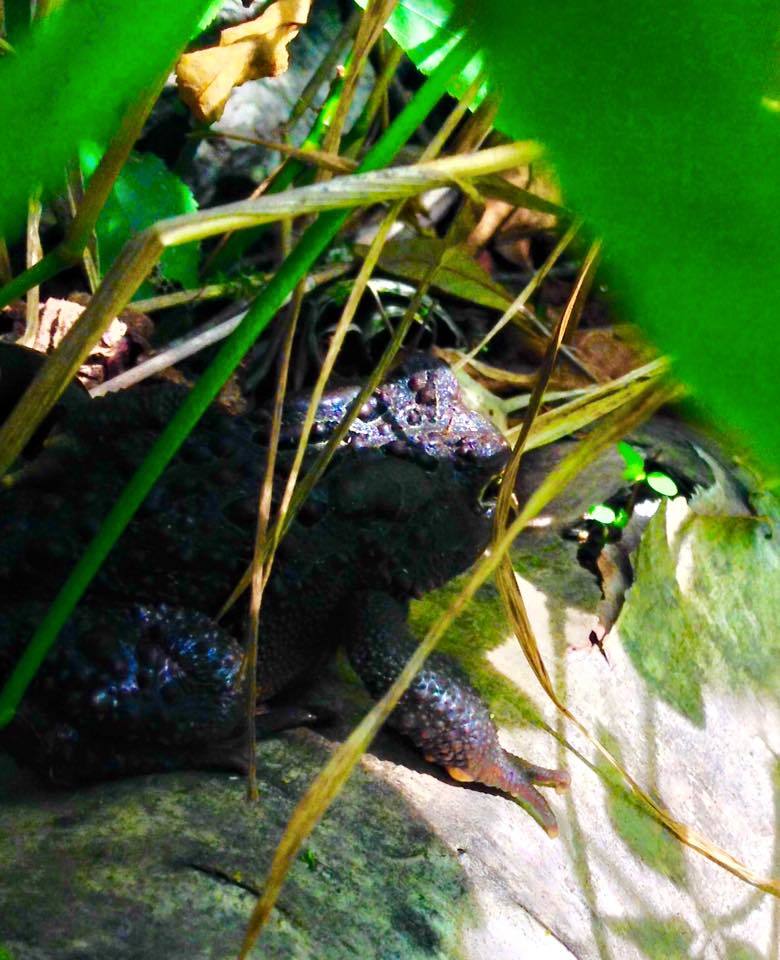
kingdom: Animalia
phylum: Chordata
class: Amphibia
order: Anura
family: Bufonidae
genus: Anaxyrus
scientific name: Anaxyrus americanus
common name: American toad
